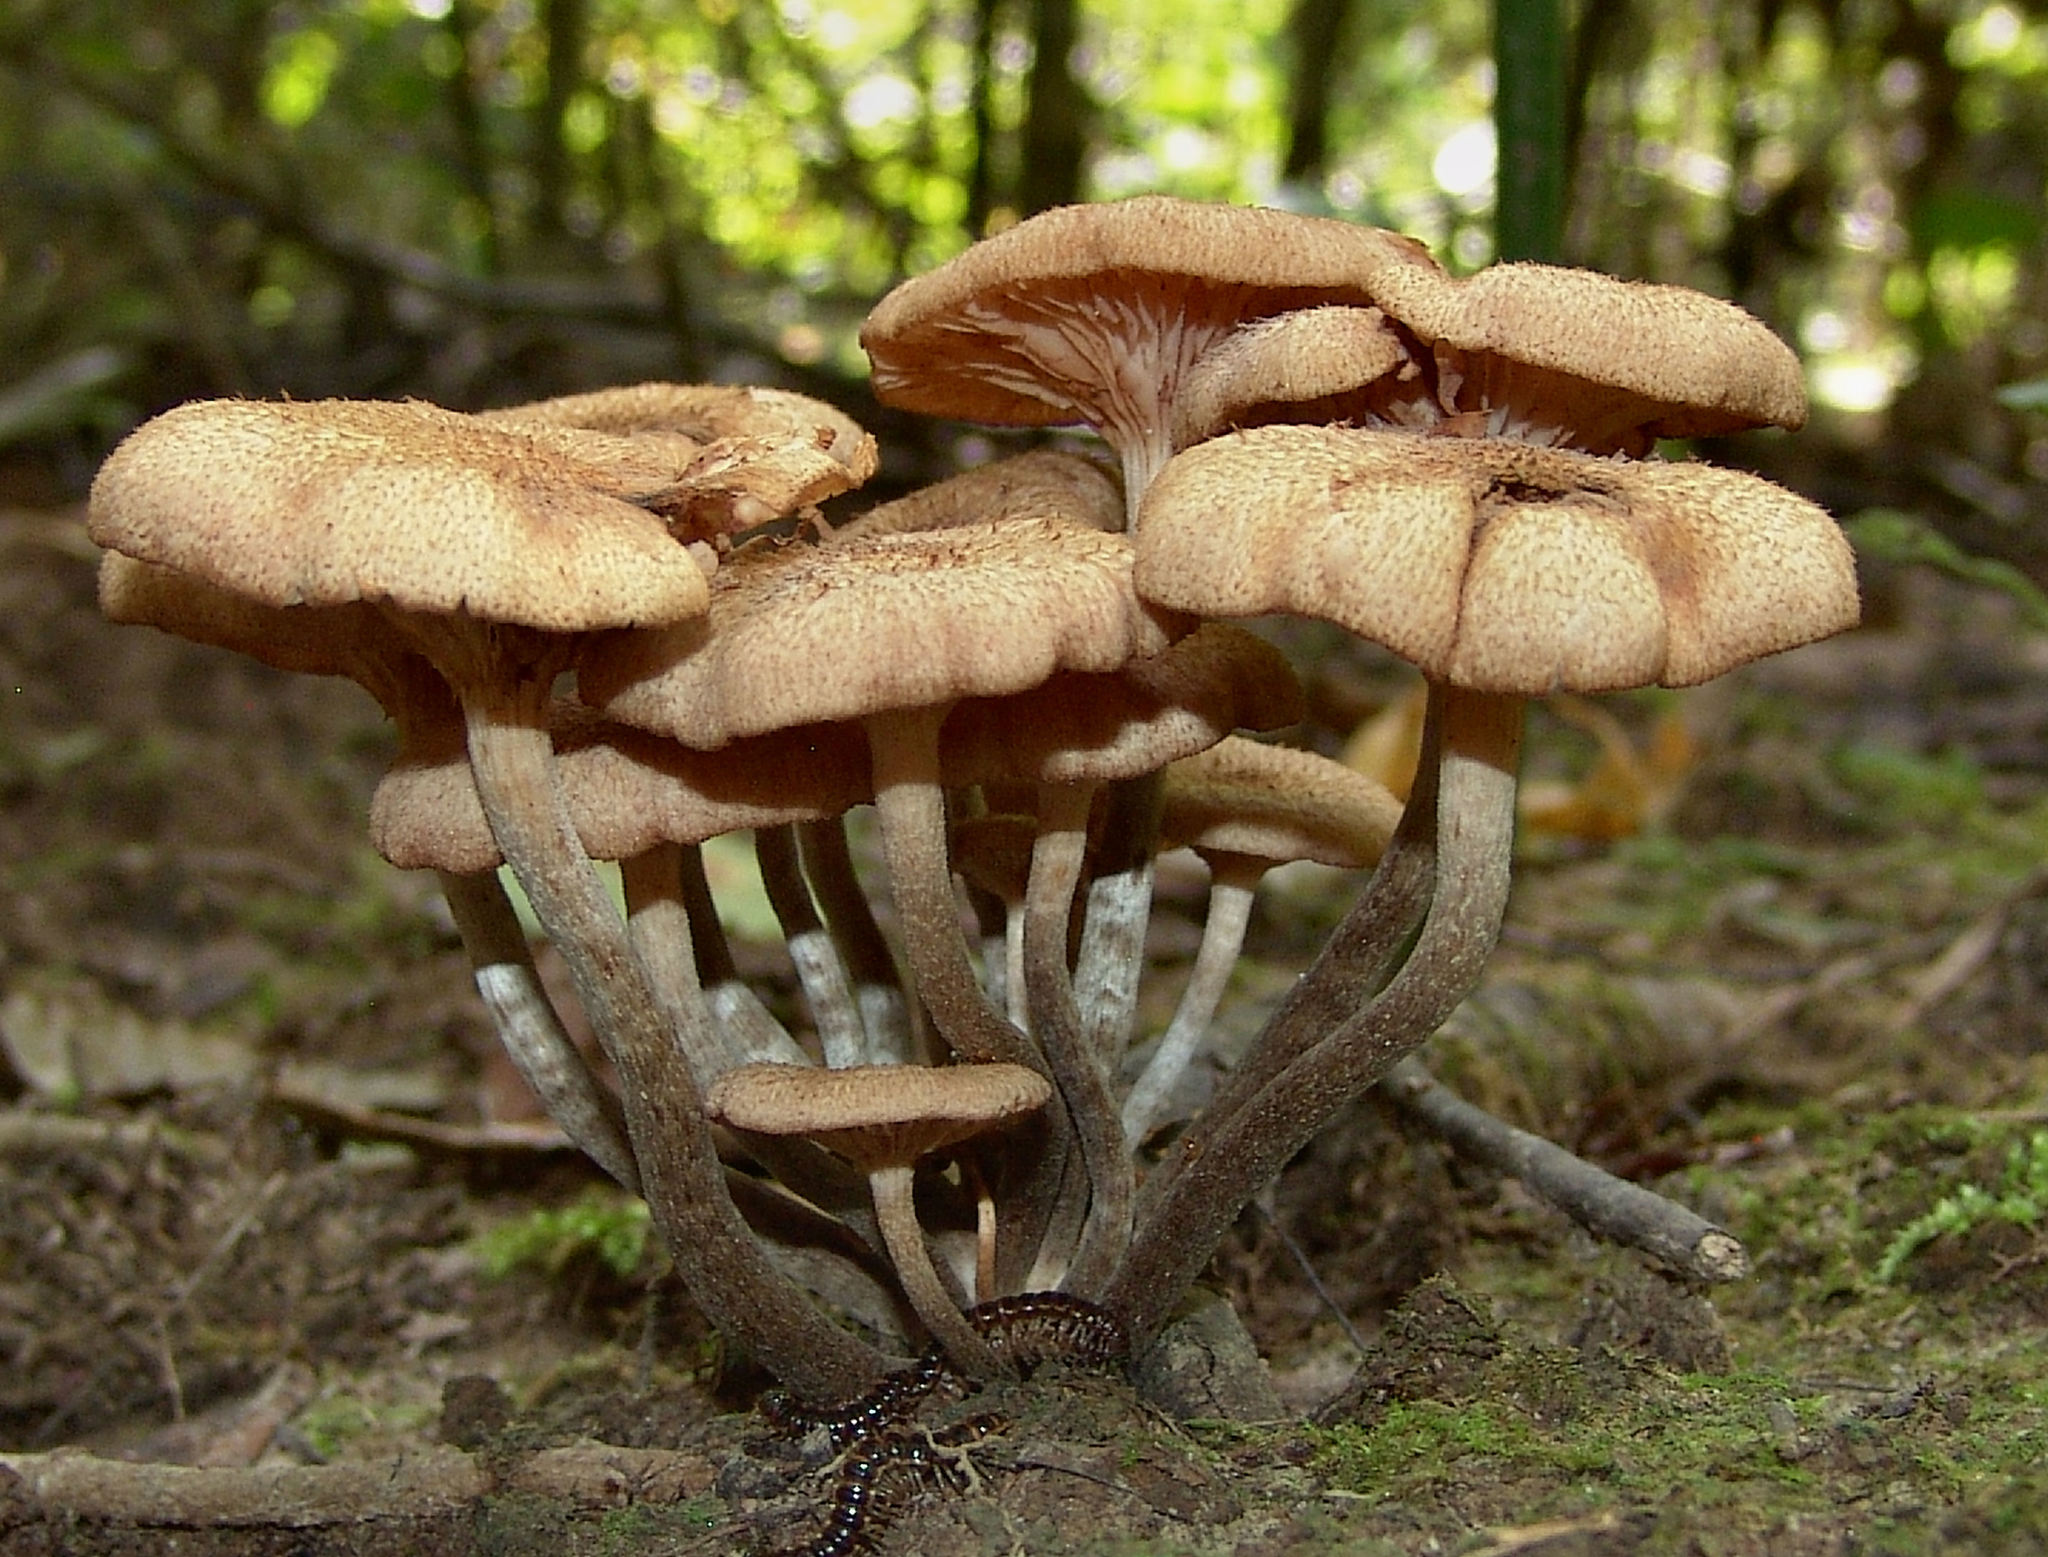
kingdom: Fungi
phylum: Basidiomycota
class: Agaricomycetes
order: Agaricales
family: Physalacriaceae
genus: Desarmillaria
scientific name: Desarmillaria caespitosa
